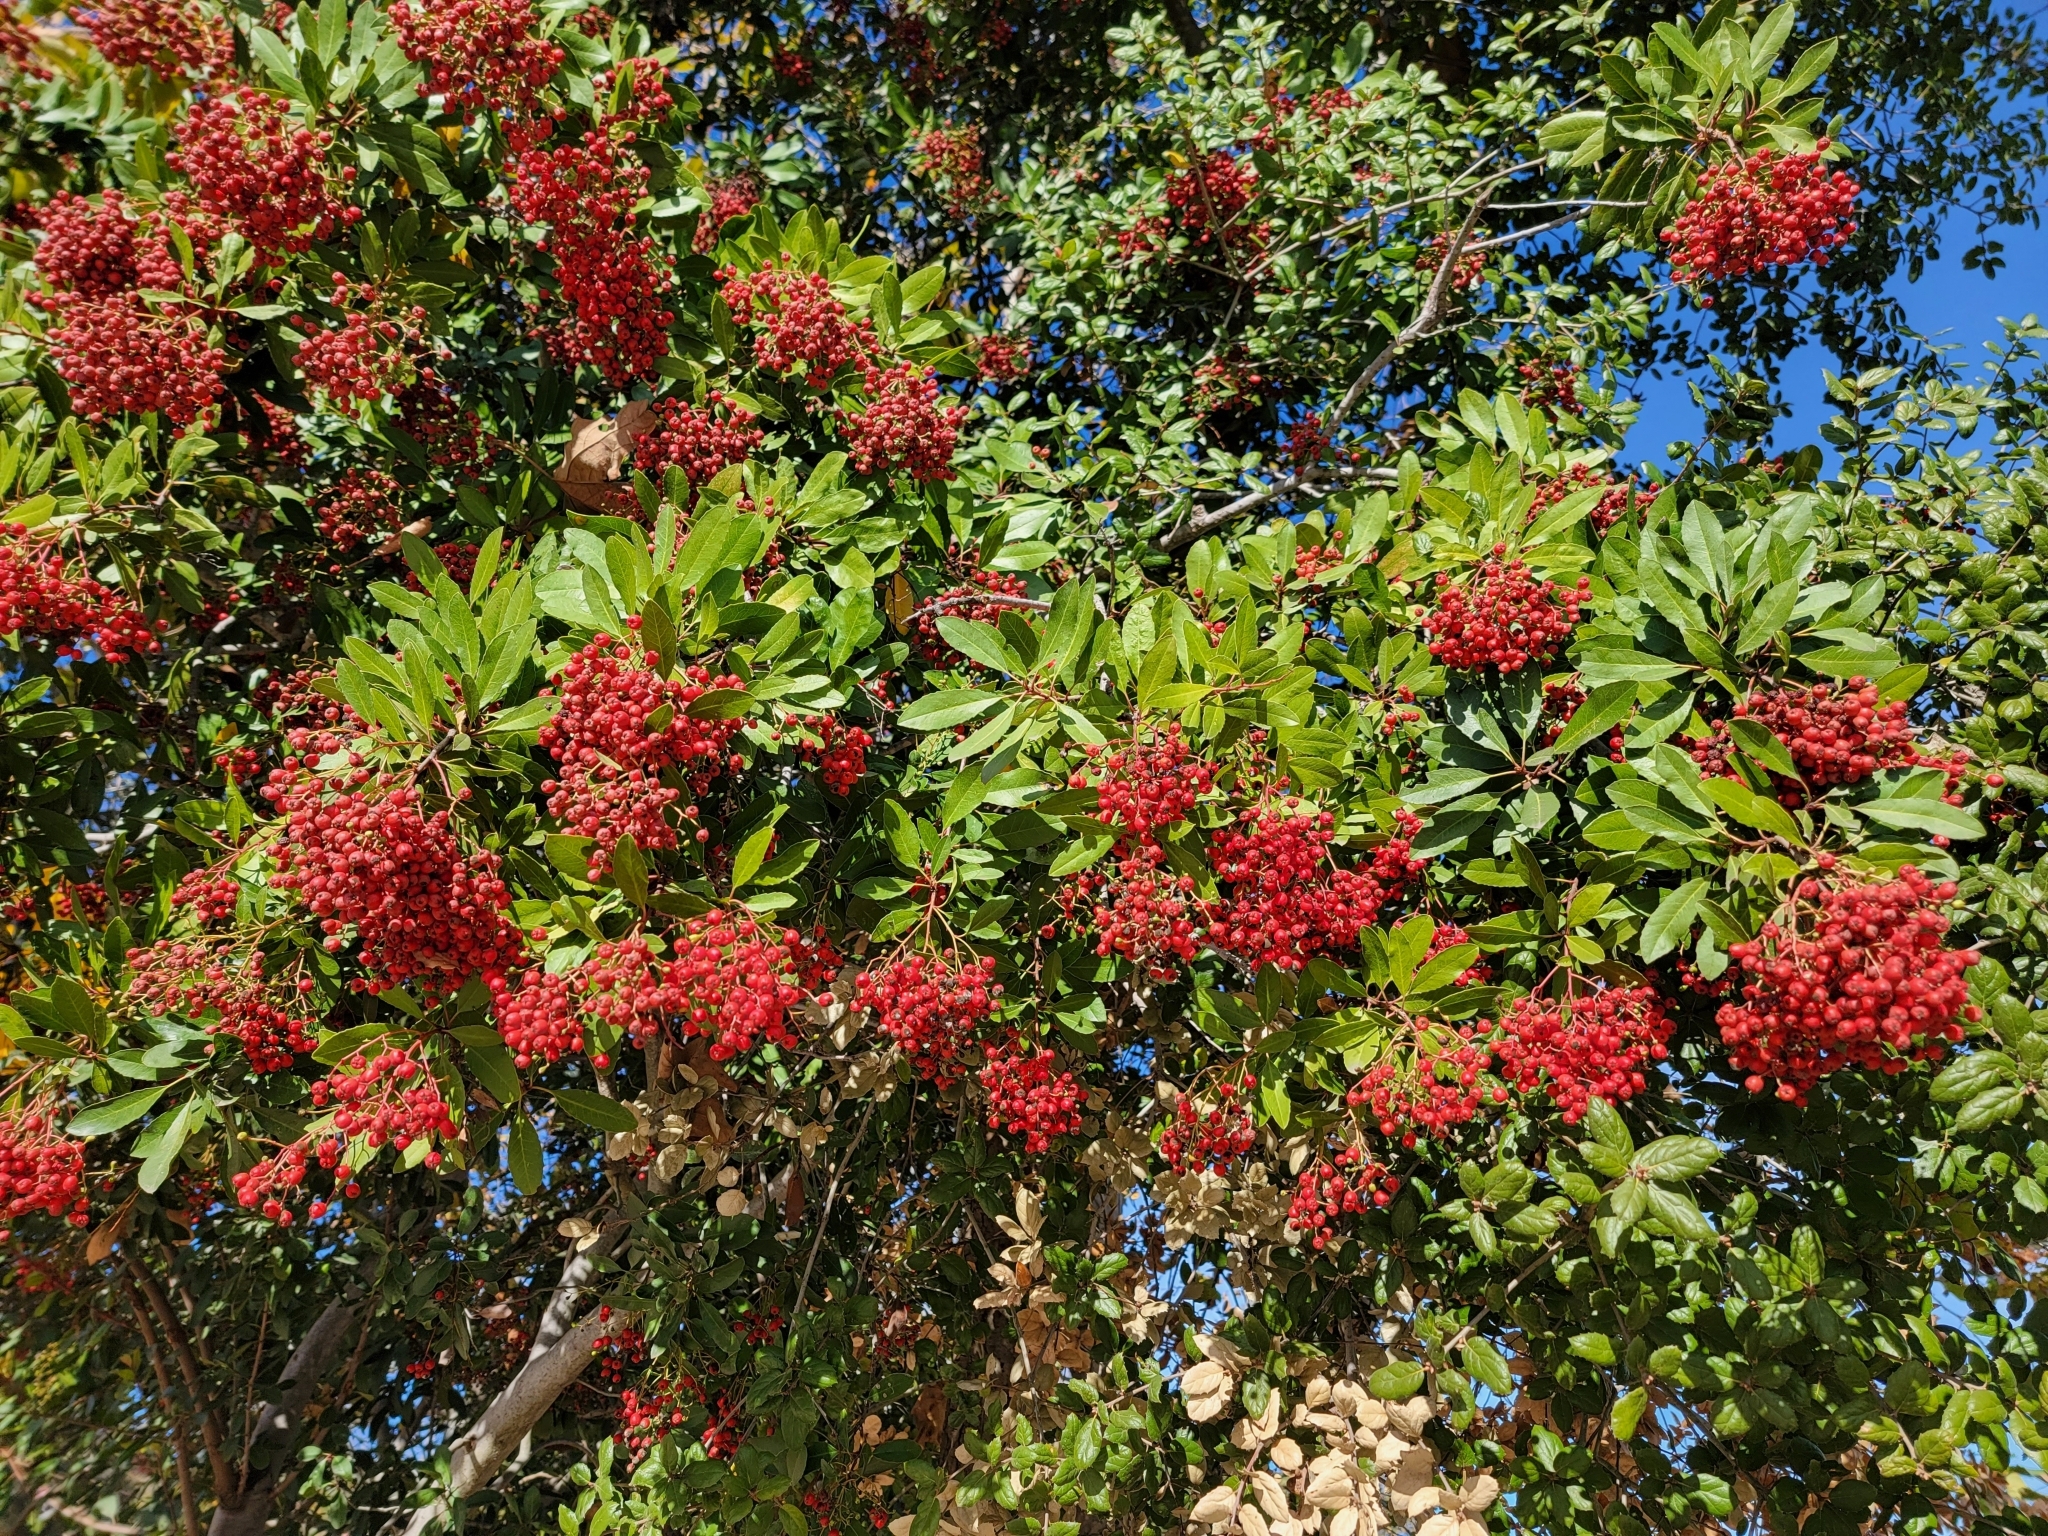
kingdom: Plantae
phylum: Tracheophyta
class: Magnoliopsida
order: Rosales
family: Rosaceae
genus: Heteromeles
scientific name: Heteromeles arbutifolia
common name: California-holly
